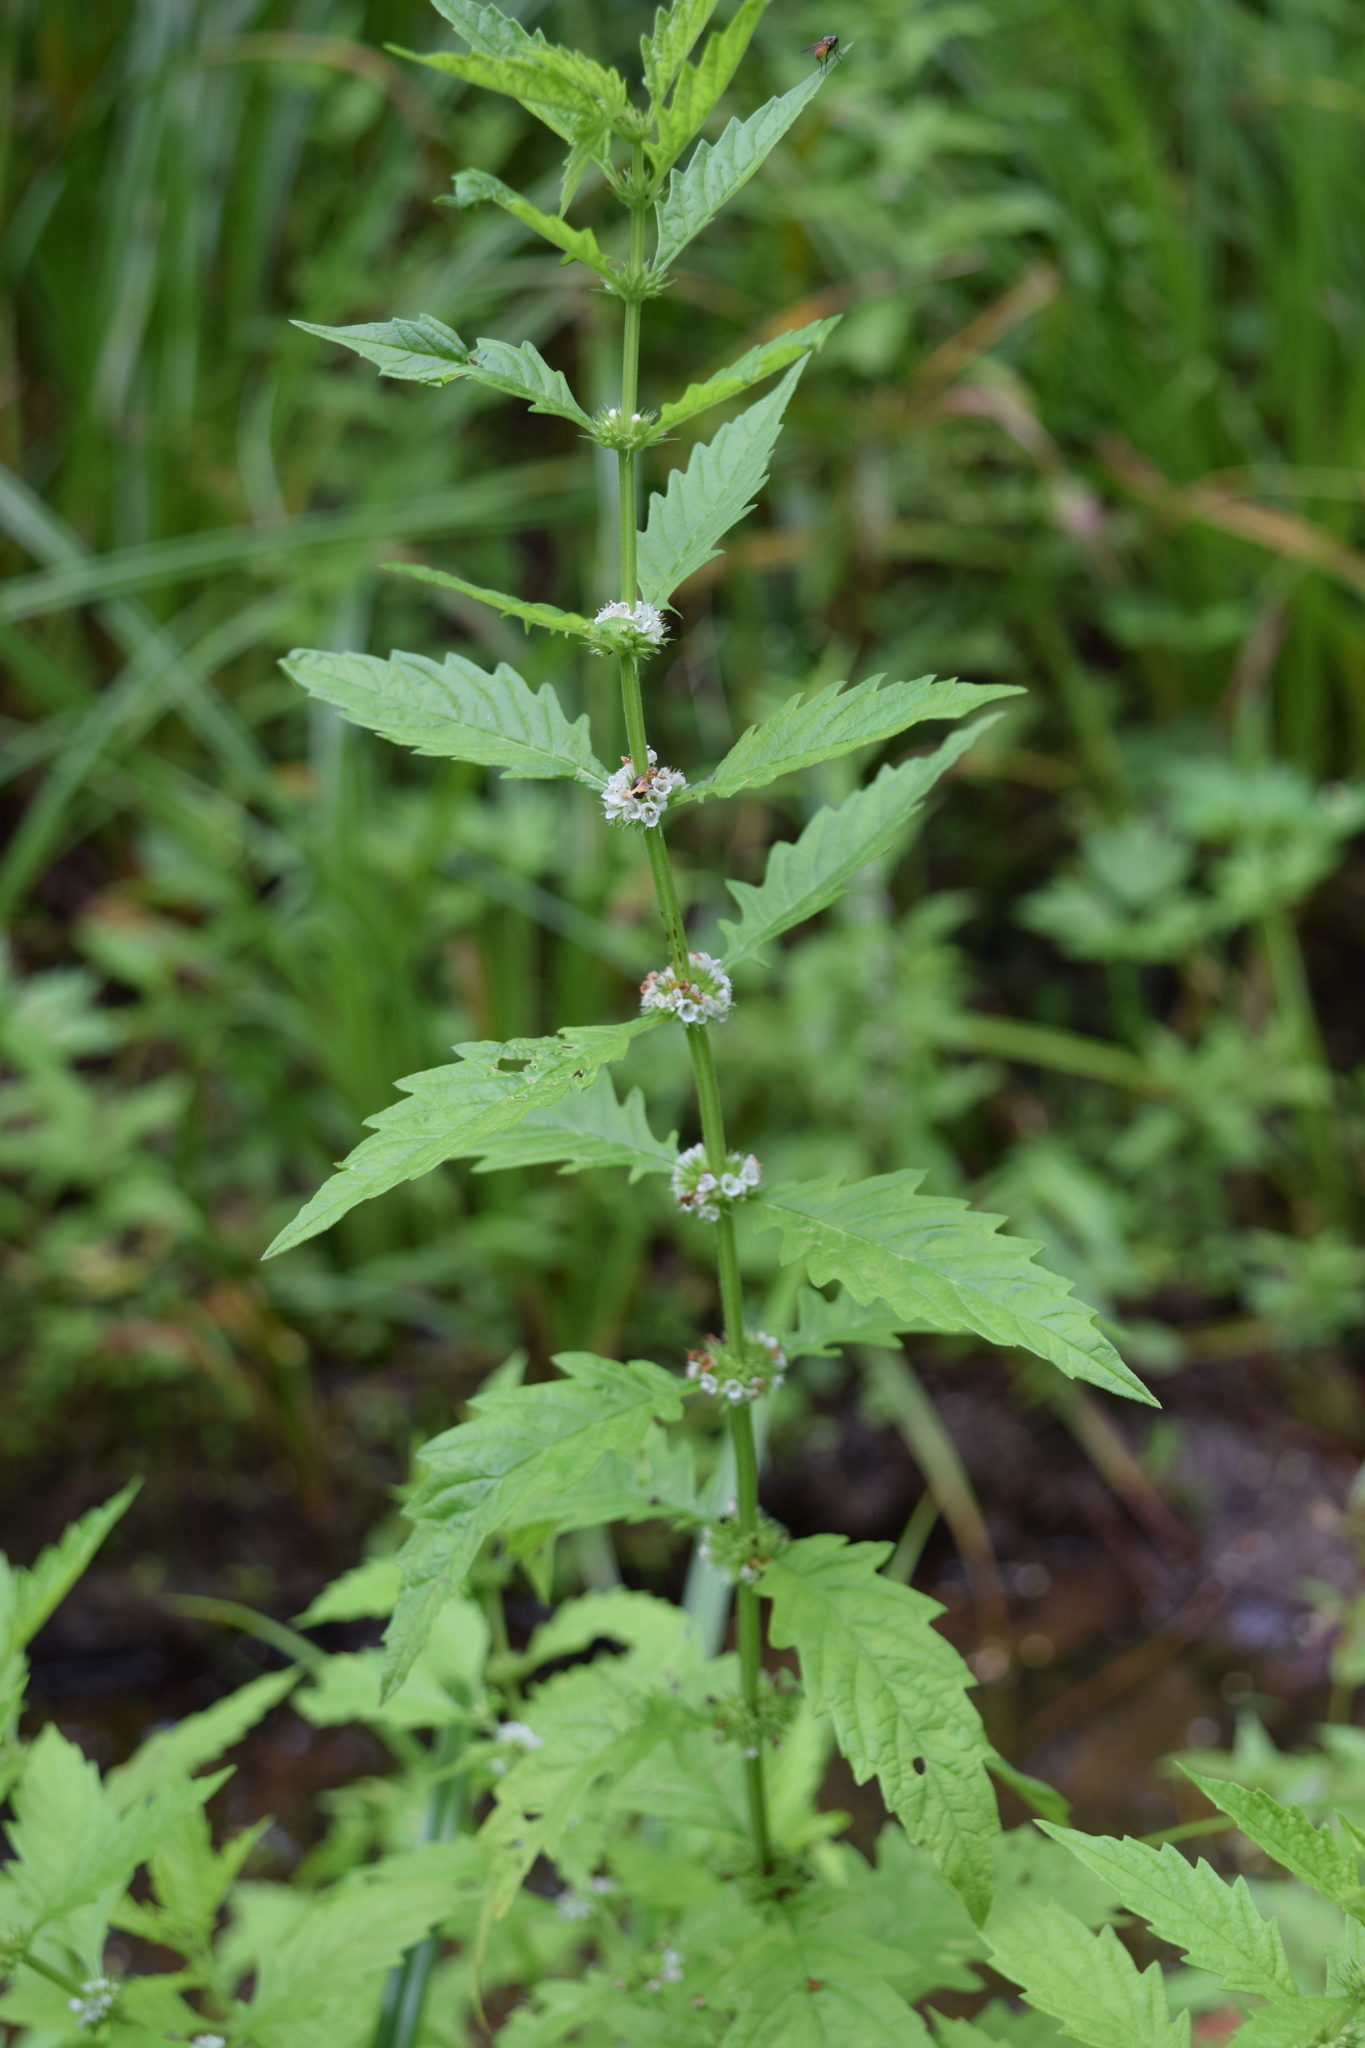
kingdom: Plantae
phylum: Tracheophyta
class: Magnoliopsida
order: Lamiales
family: Lamiaceae
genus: Lycopus
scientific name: Lycopus europaeus
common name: European bugleweed
